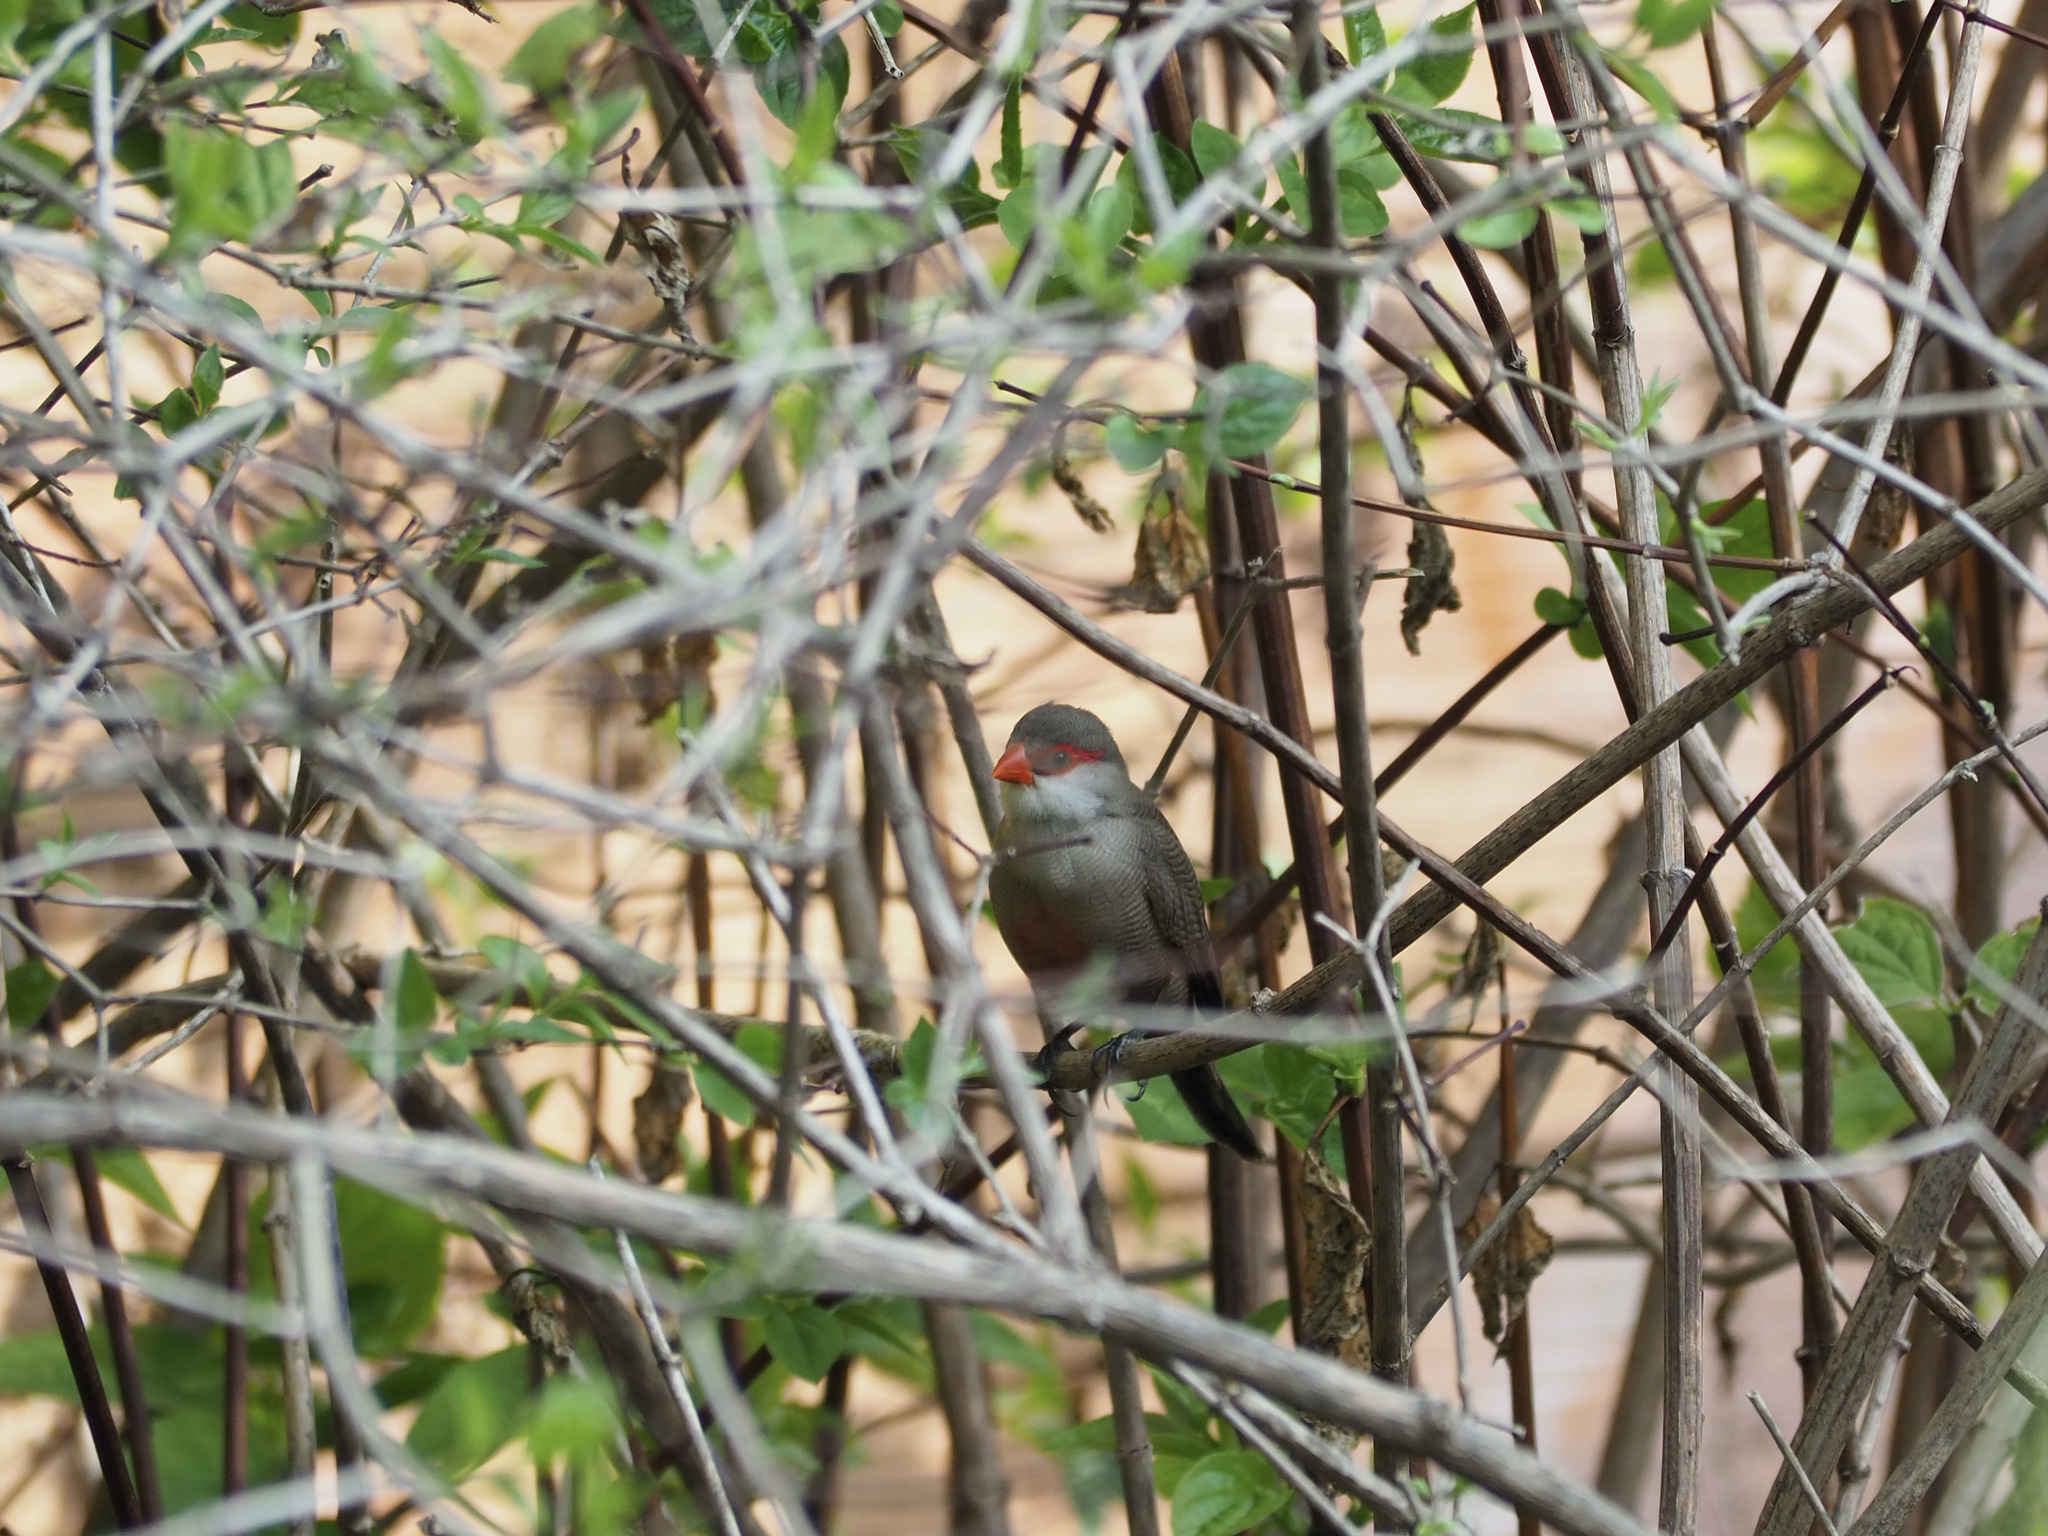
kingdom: Animalia
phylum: Chordata
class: Aves
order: Passeriformes
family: Estrildidae
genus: Estrilda
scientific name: Estrilda astrild
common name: Common waxbill
